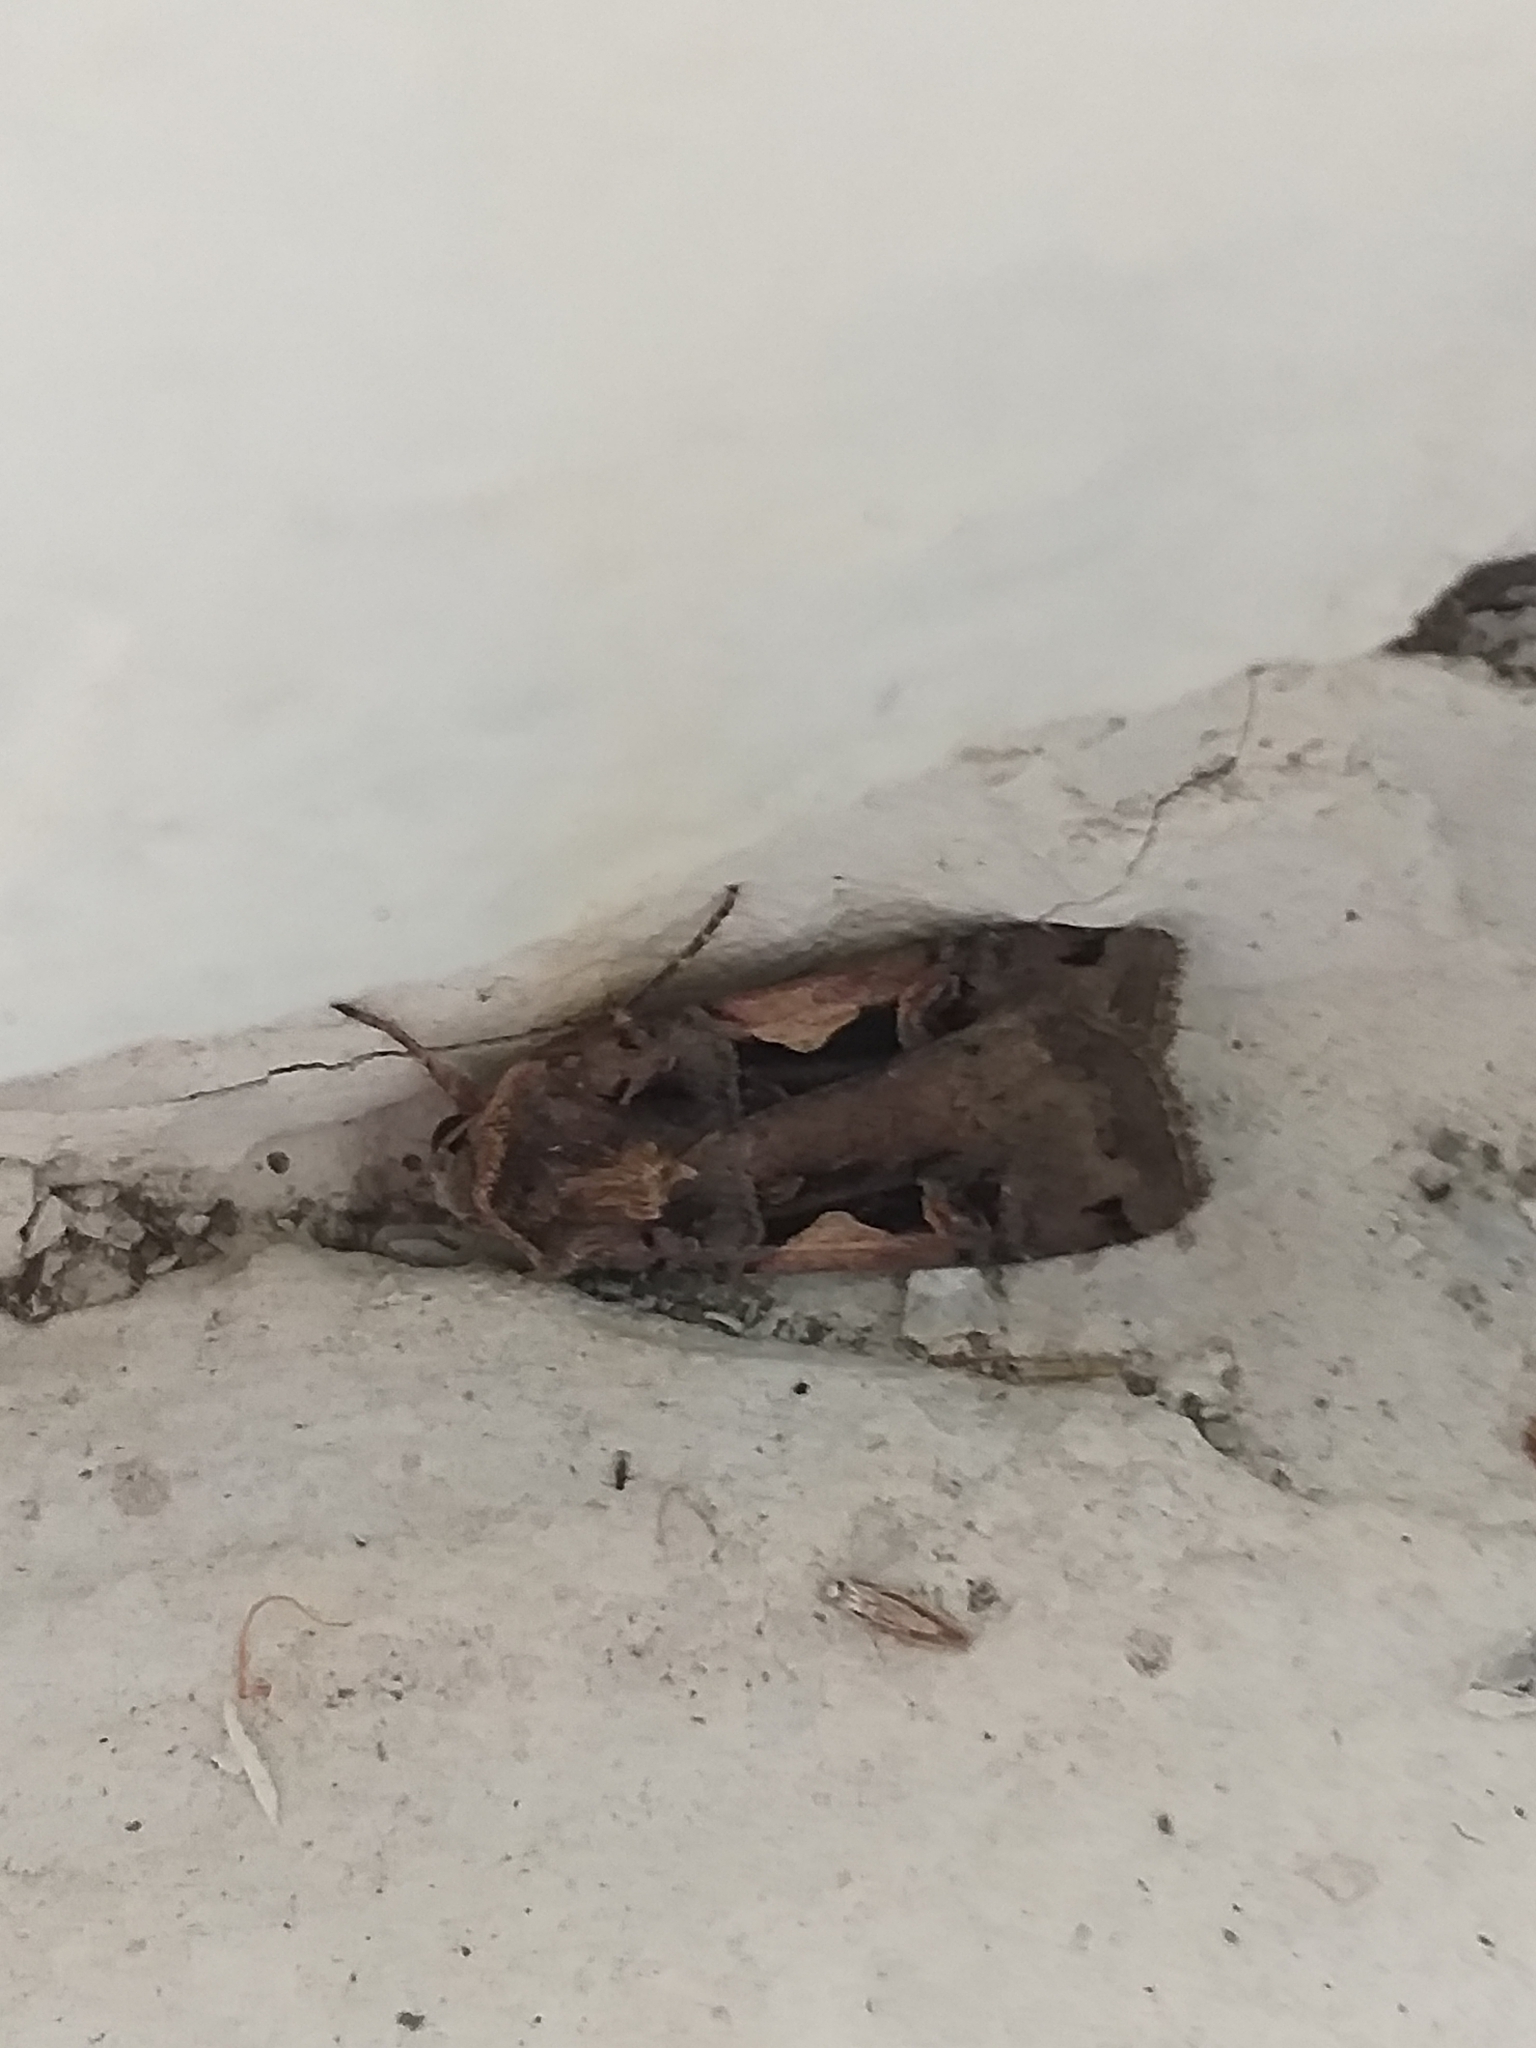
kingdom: Animalia
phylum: Arthropoda
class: Insecta
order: Lepidoptera
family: Noctuidae
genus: Xestia
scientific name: Xestia c-nigrum
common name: Setaceous hebrew character
